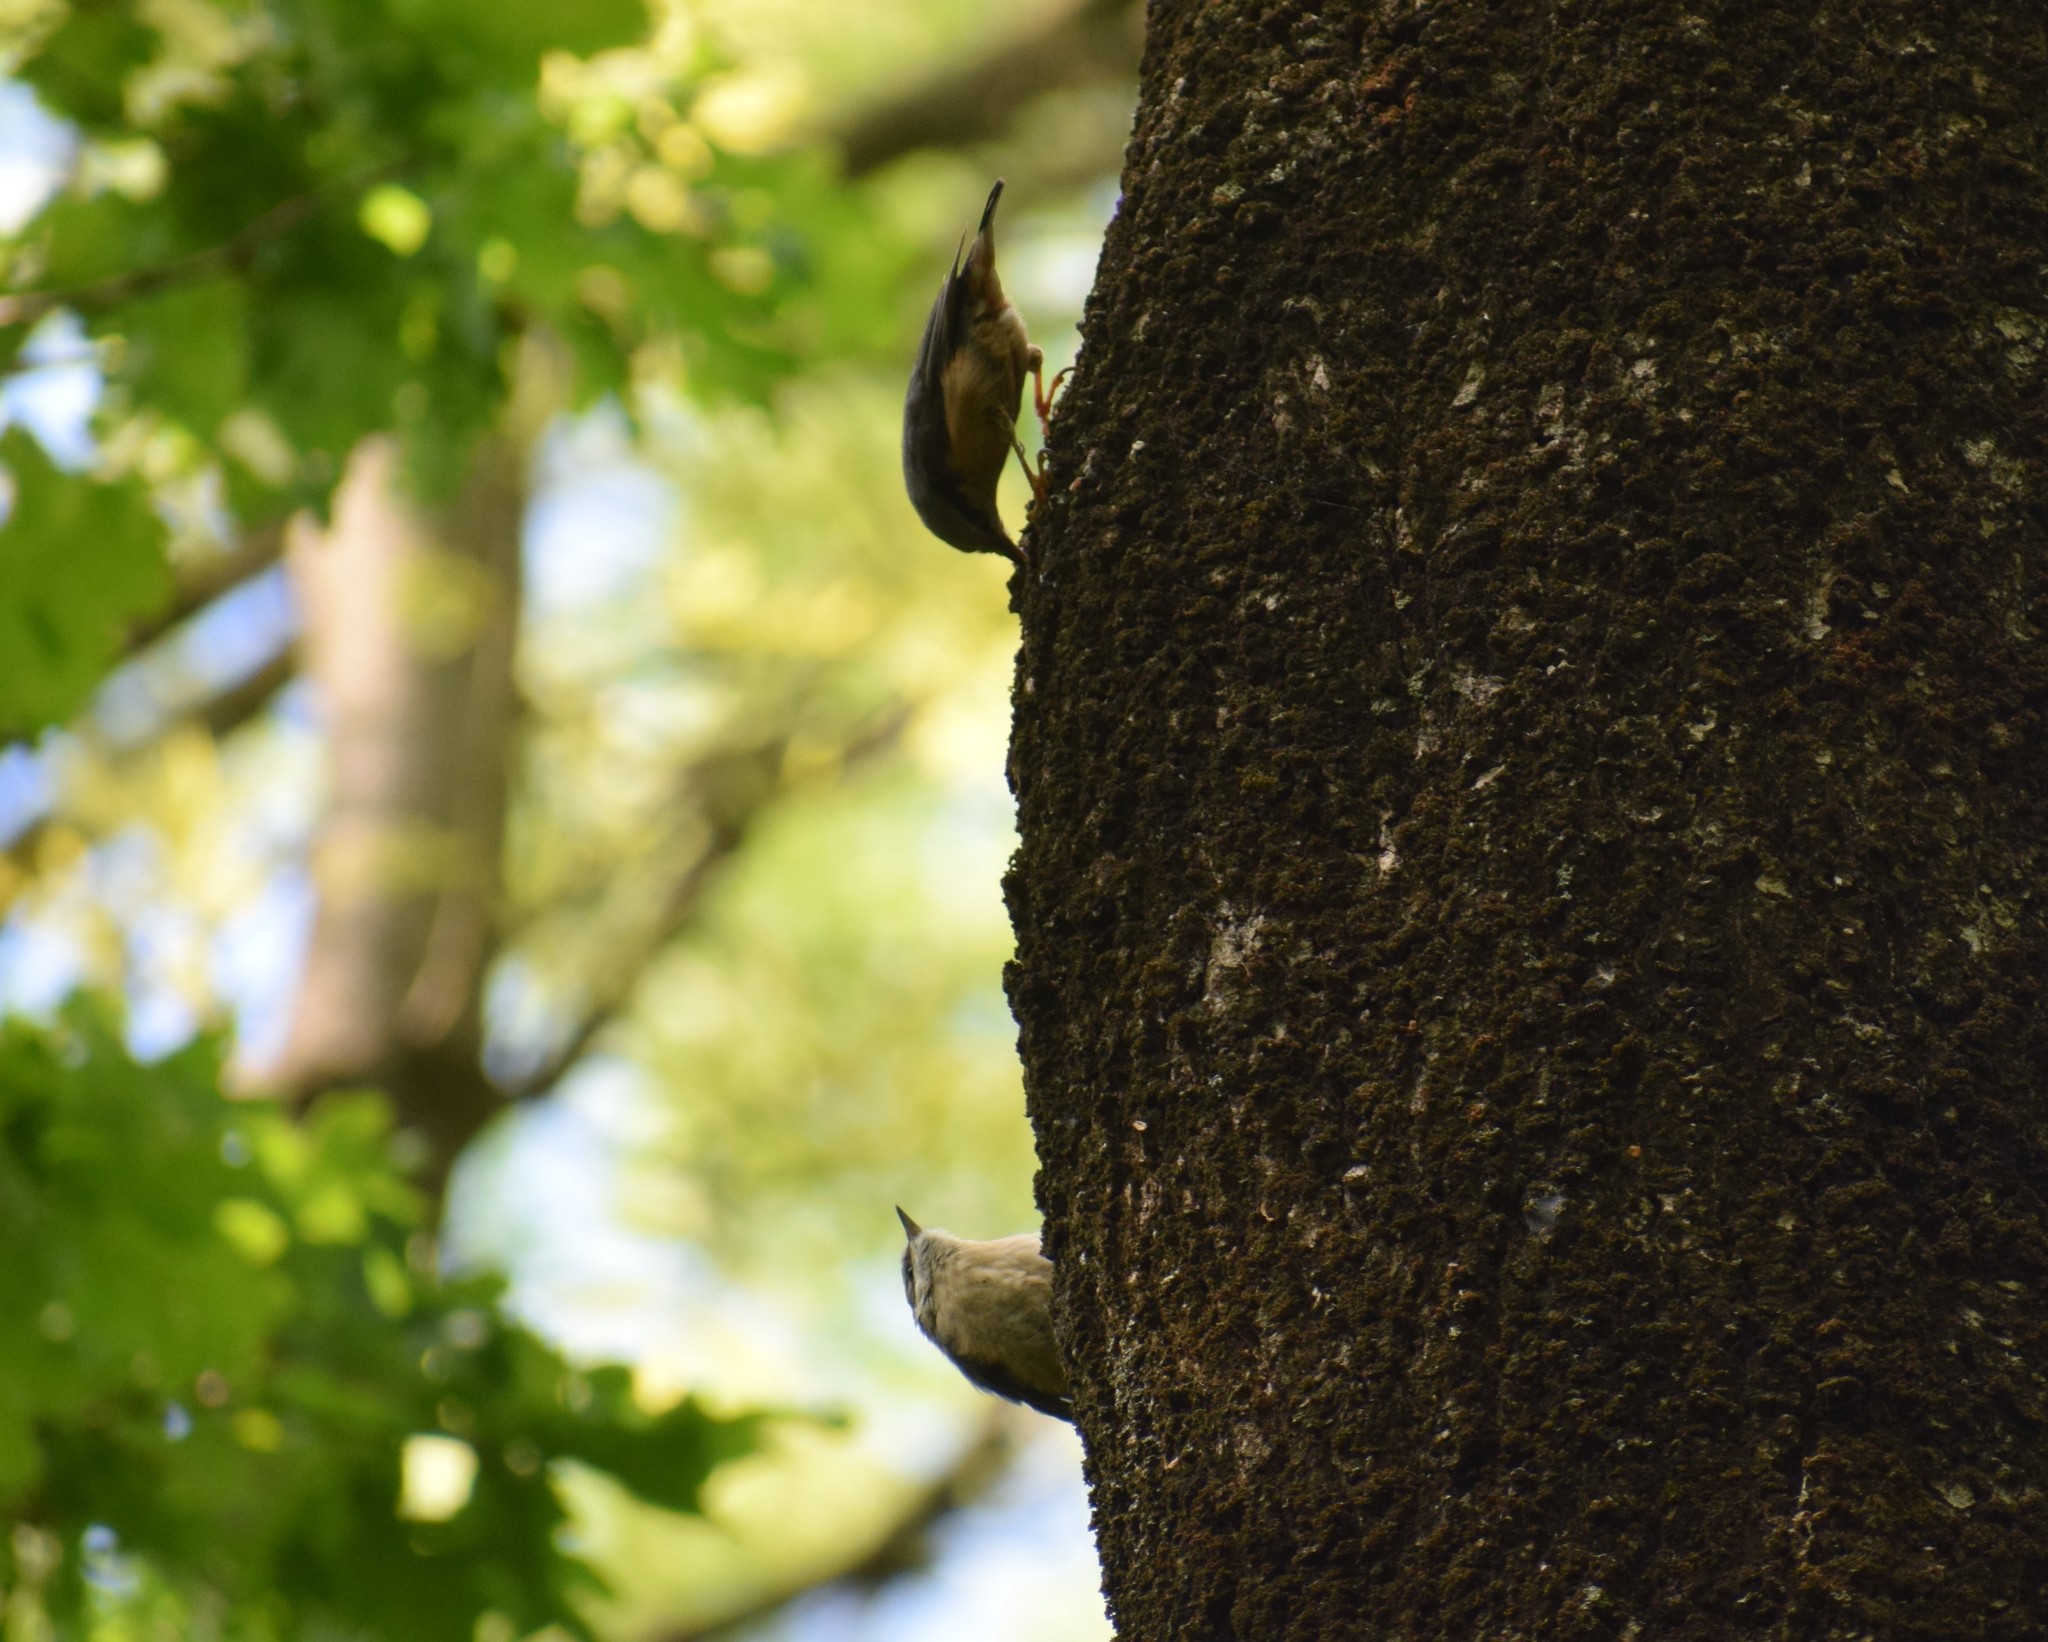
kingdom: Animalia
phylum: Chordata
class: Aves
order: Passeriformes
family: Sittidae
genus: Sitta
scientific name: Sitta europaea
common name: Eurasian nuthatch
